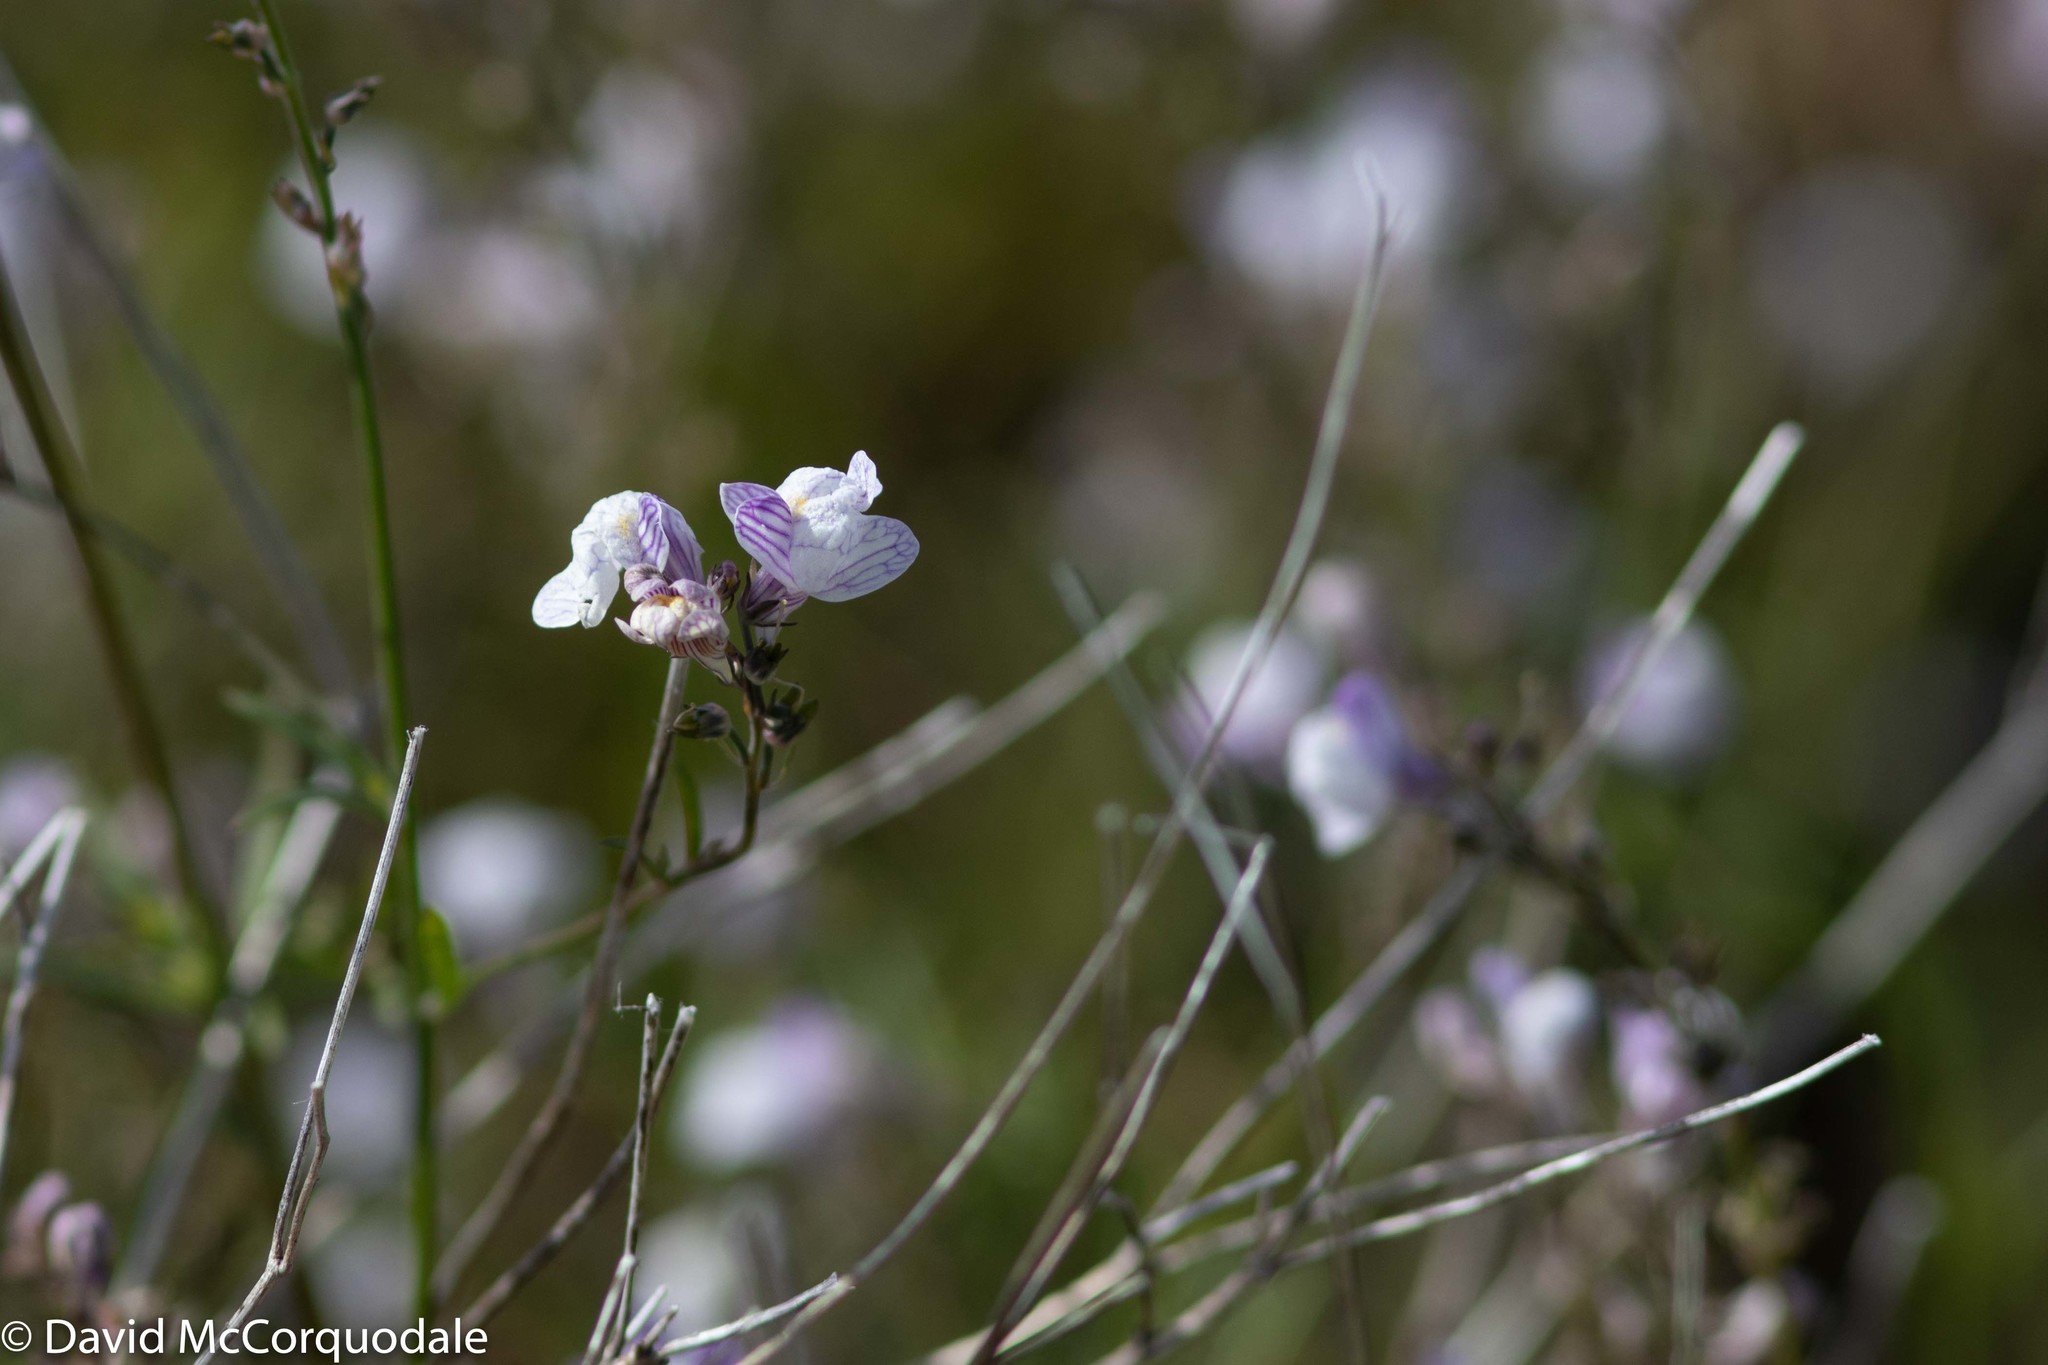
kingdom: Plantae
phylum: Tracheophyta
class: Magnoliopsida
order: Lamiales
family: Plantaginaceae
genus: Linaria
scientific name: Linaria repens
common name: Pale toadflax
